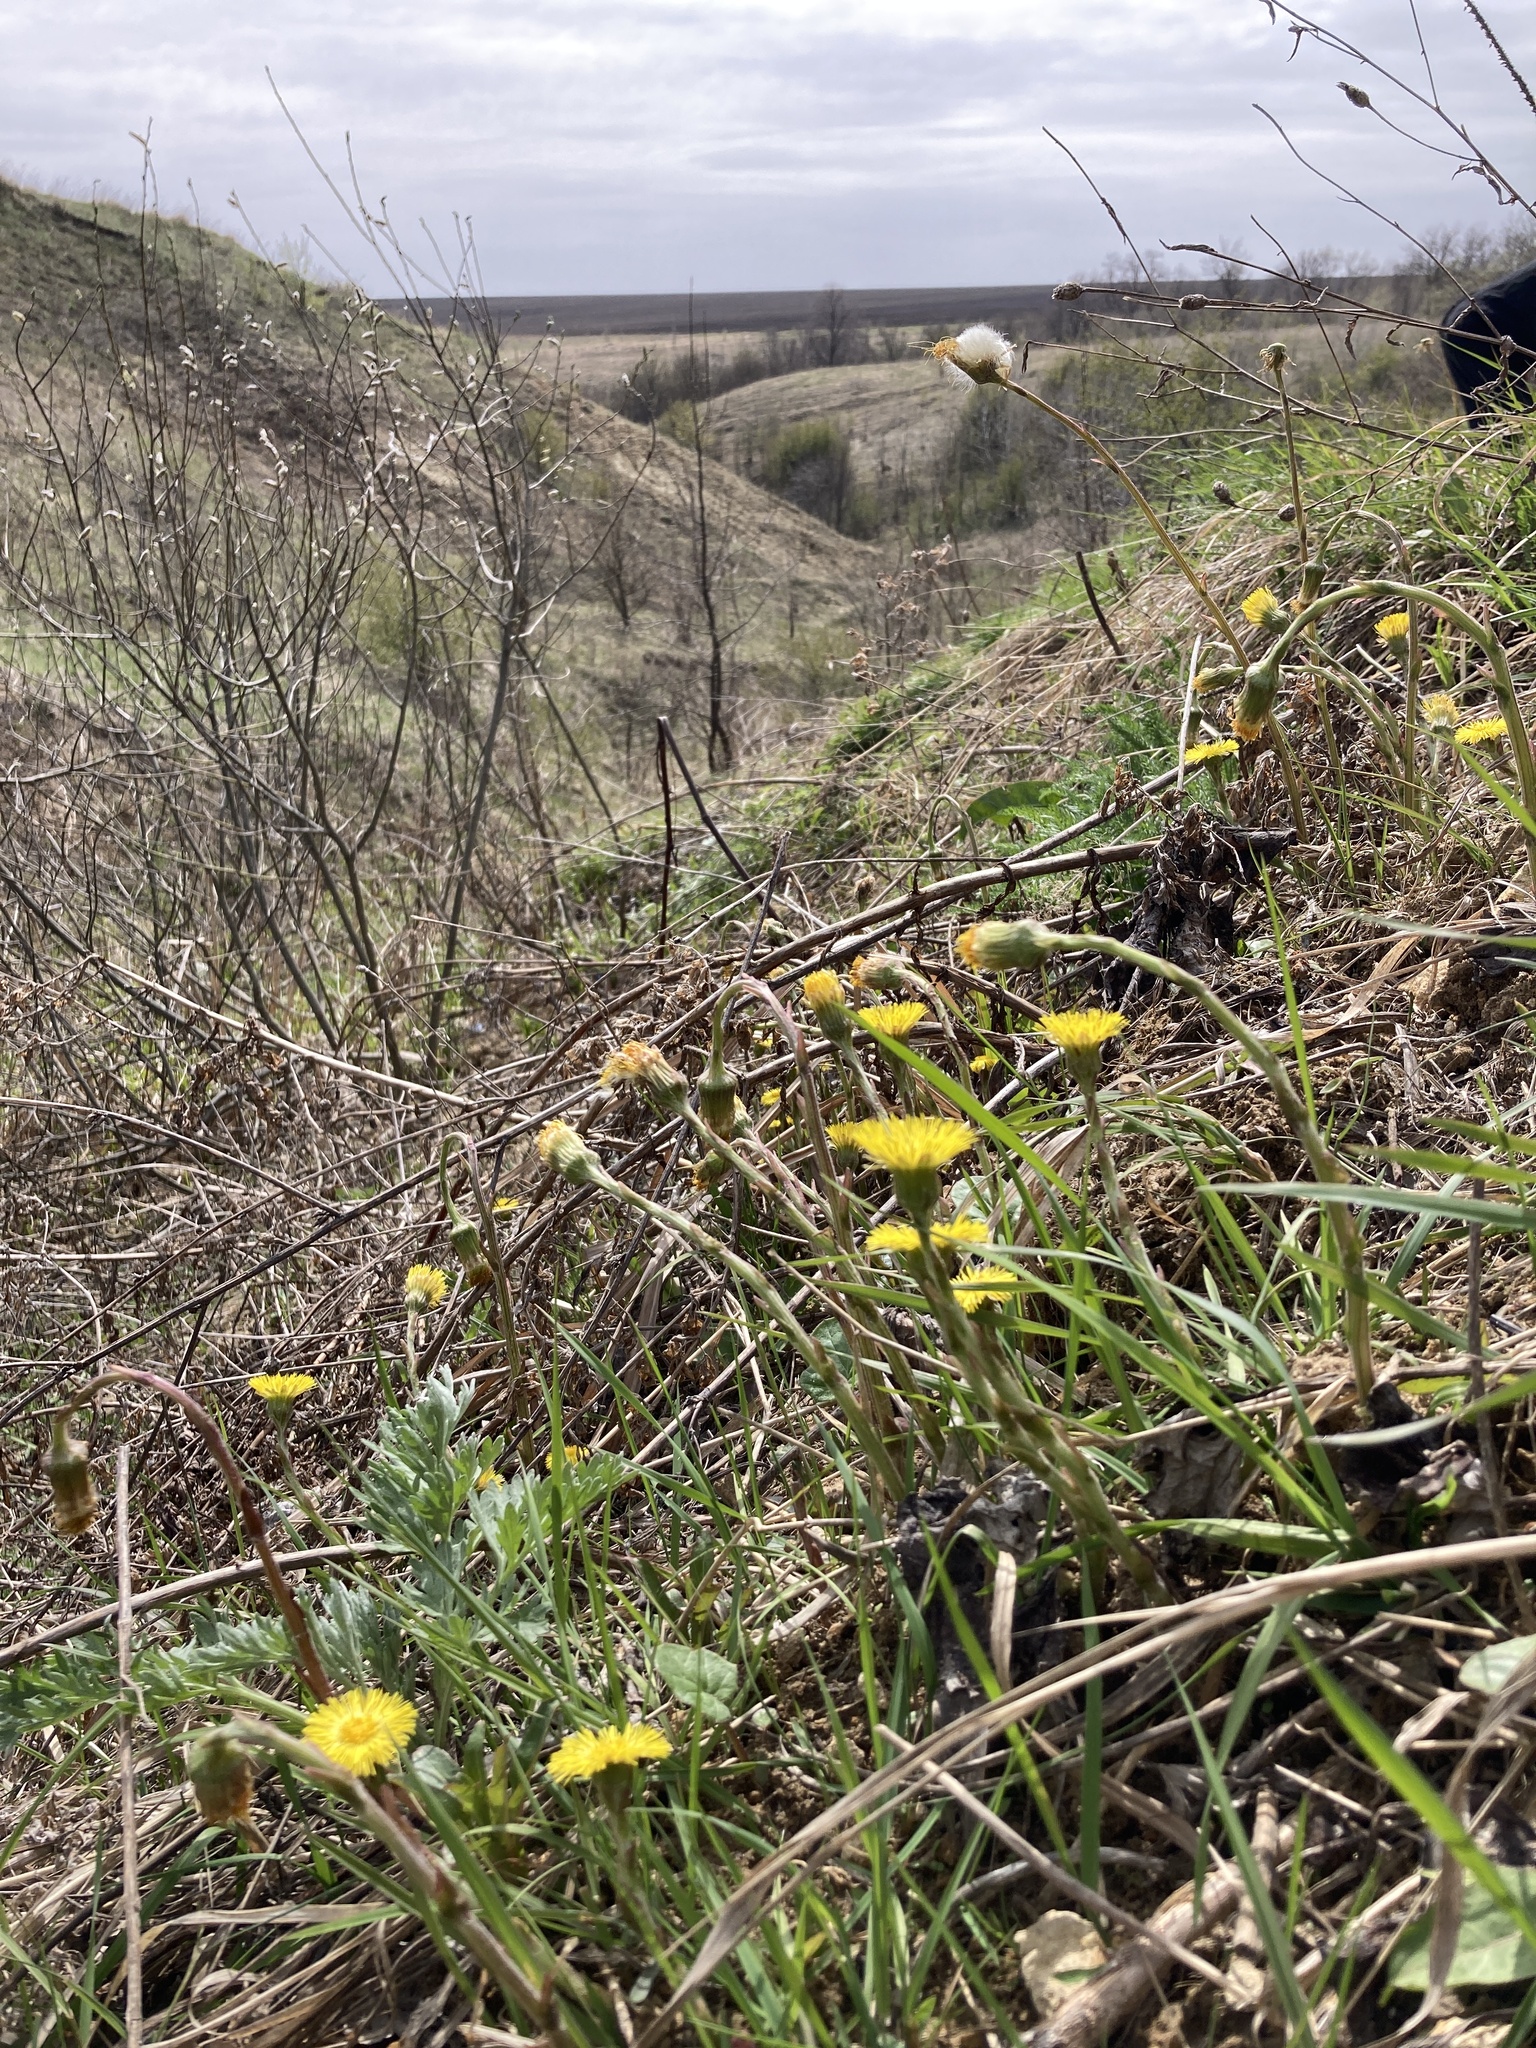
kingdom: Plantae
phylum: Tracheophyta
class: Magnoliopsida
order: Asterales
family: Asteraceae
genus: Tussilago
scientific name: Tussilago farfara
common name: Coltsfoot
